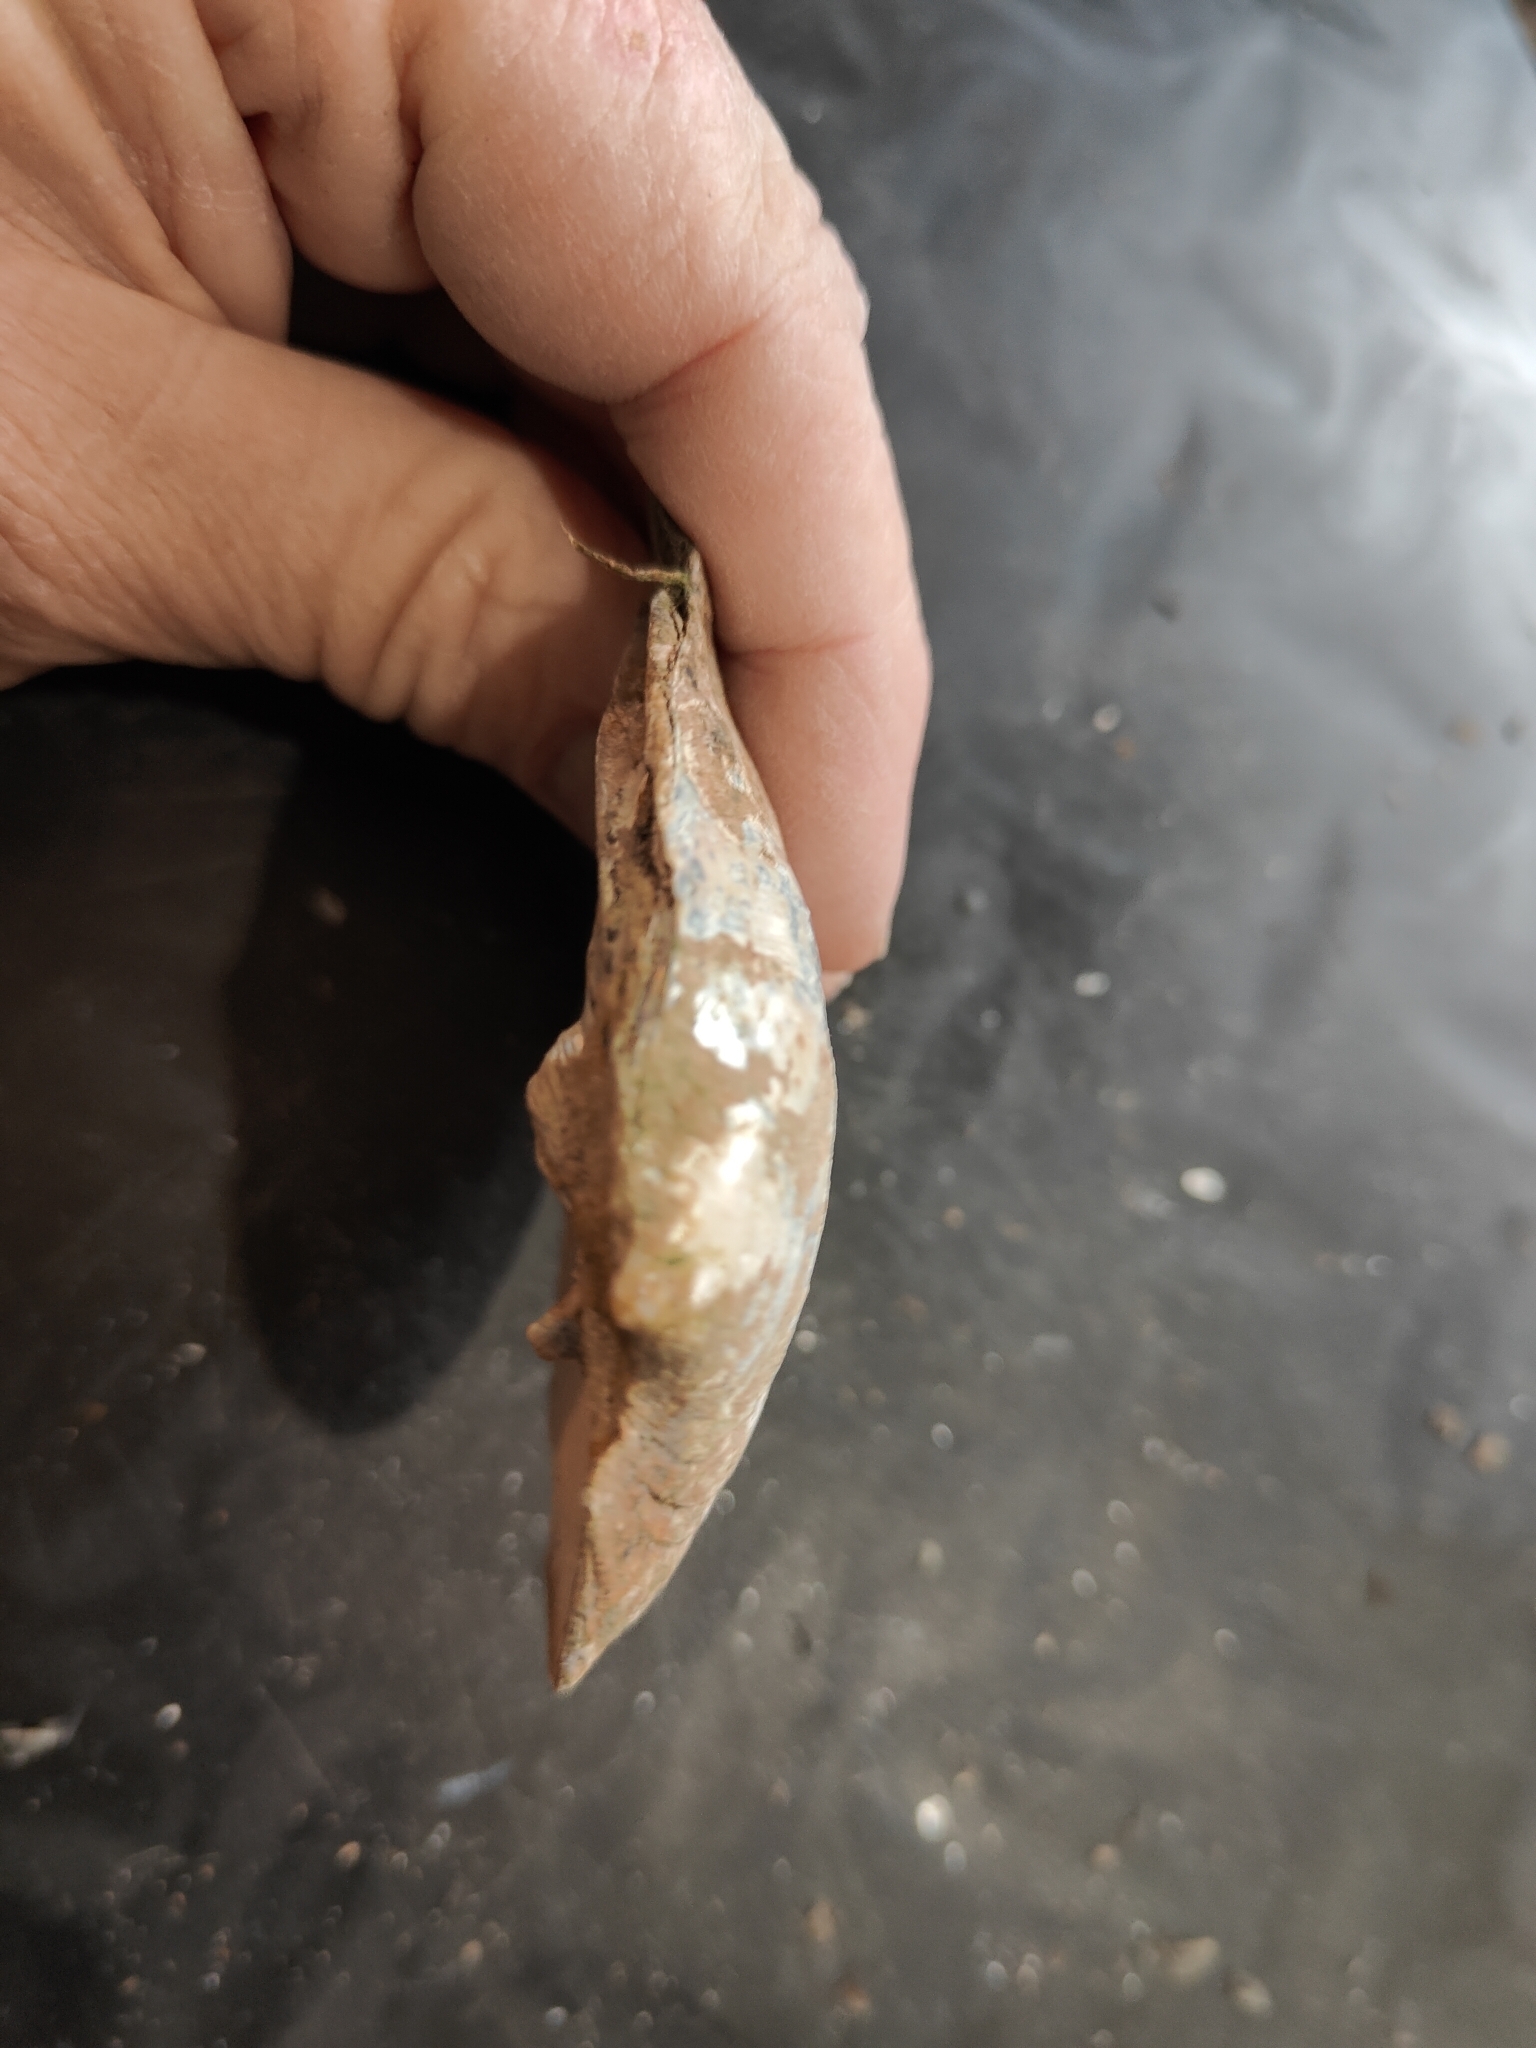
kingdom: Animalia
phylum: Mollusca
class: Bivalvia
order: Unionida
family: Unionidae
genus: Amblema
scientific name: Amblema plicata
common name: Threeridge
